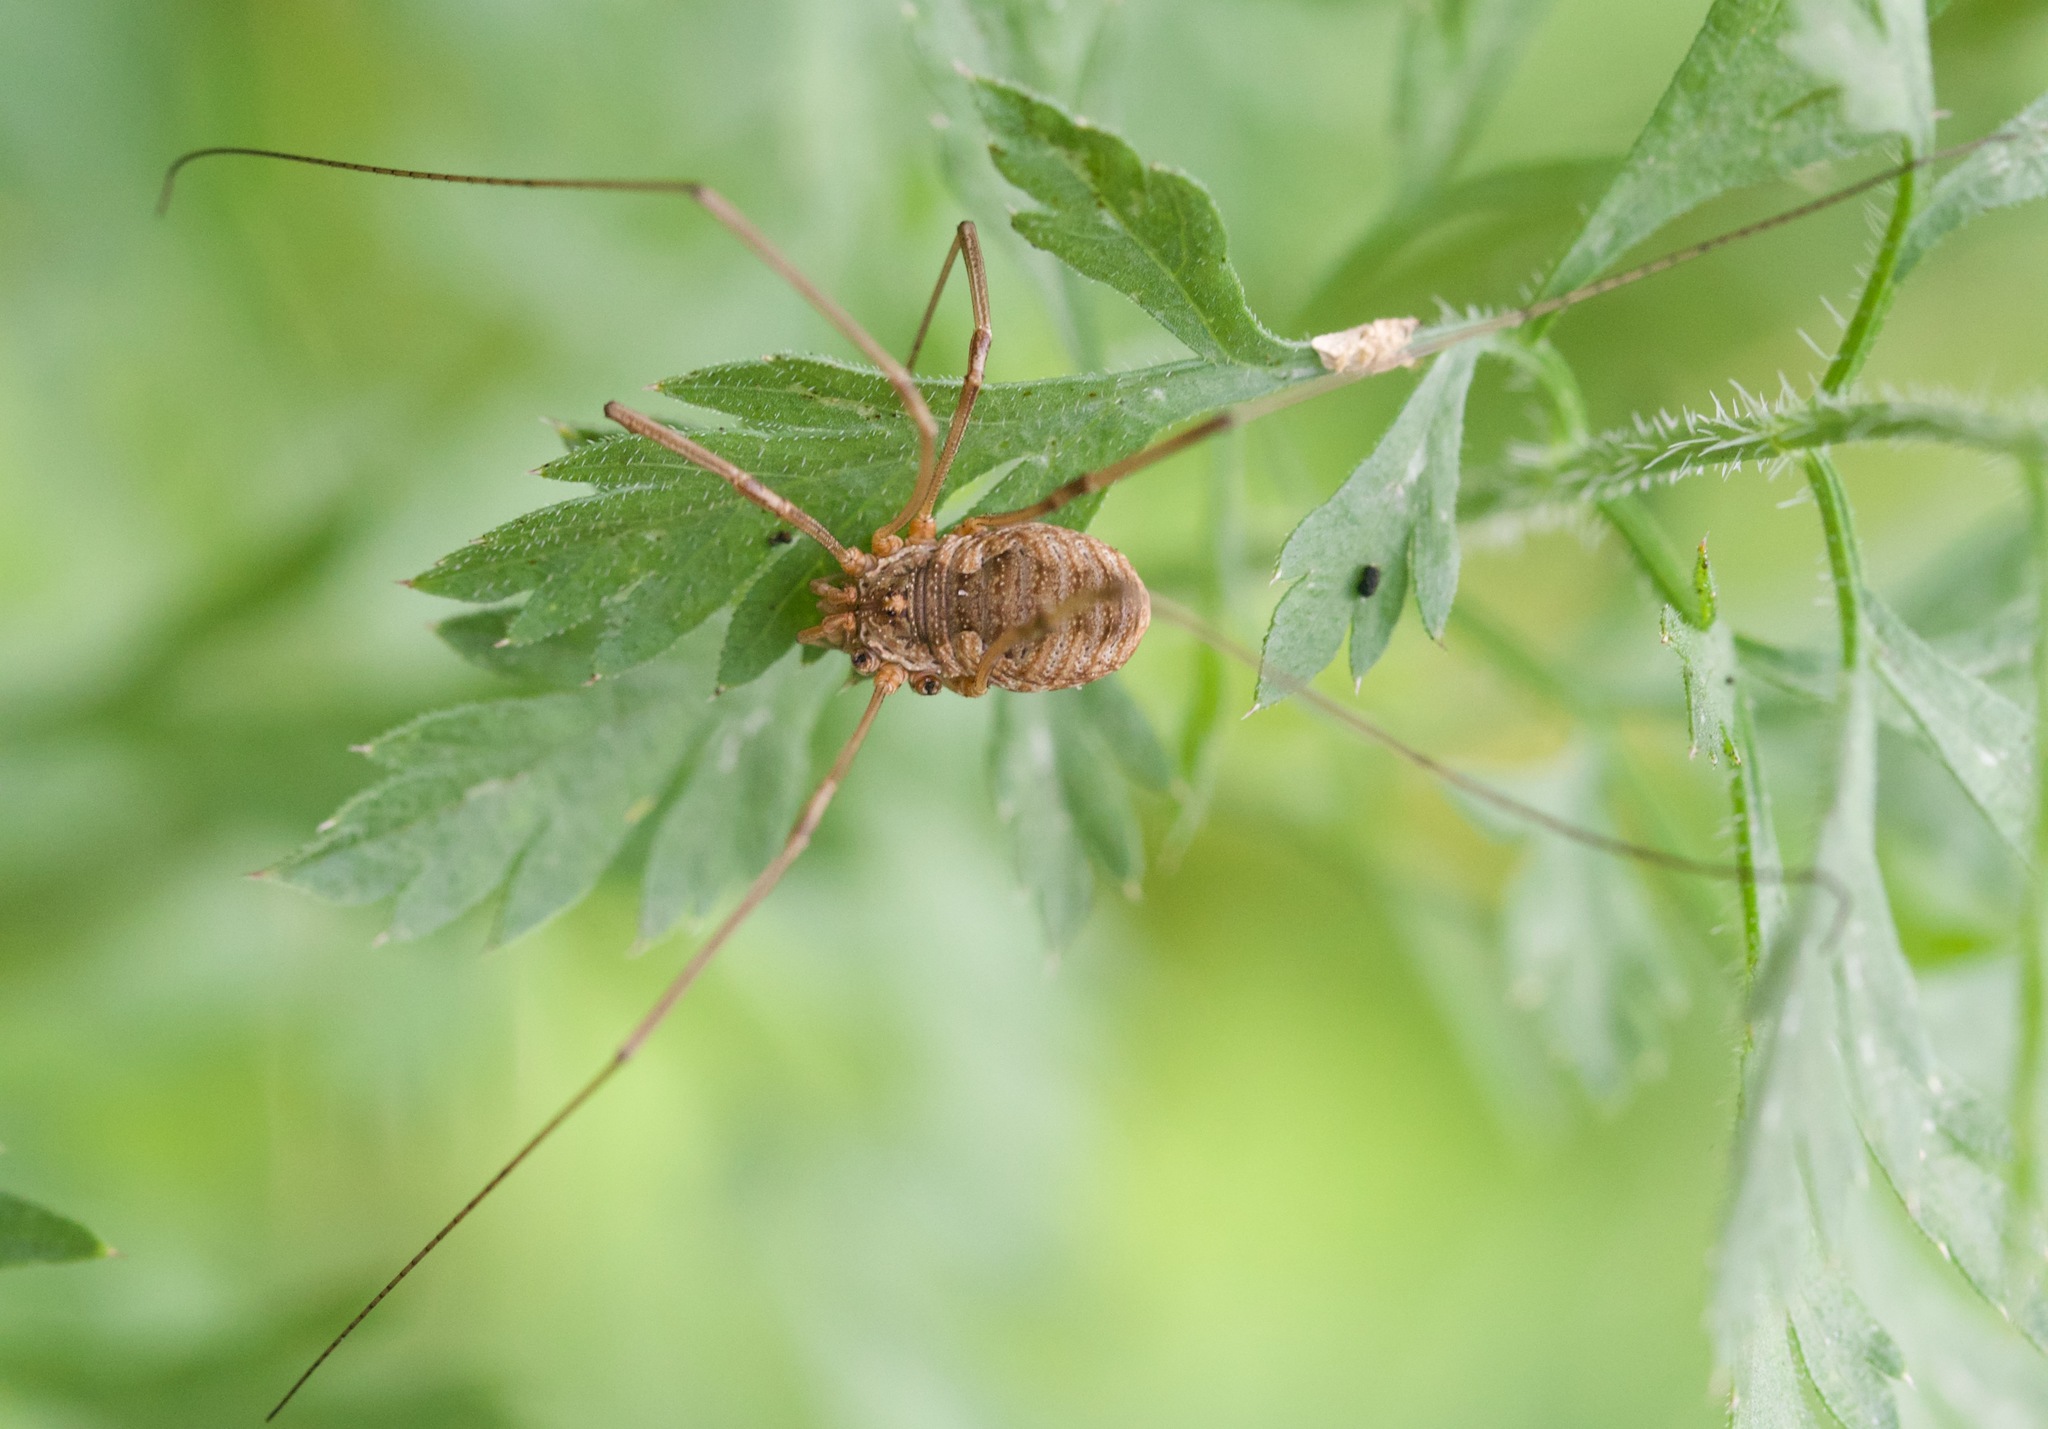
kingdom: Animalia
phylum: Arthropoda
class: Arachnida
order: Opiliones
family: Phalangiidae
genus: Phalangium
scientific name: Phalangium opilio
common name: Daddy longleg
